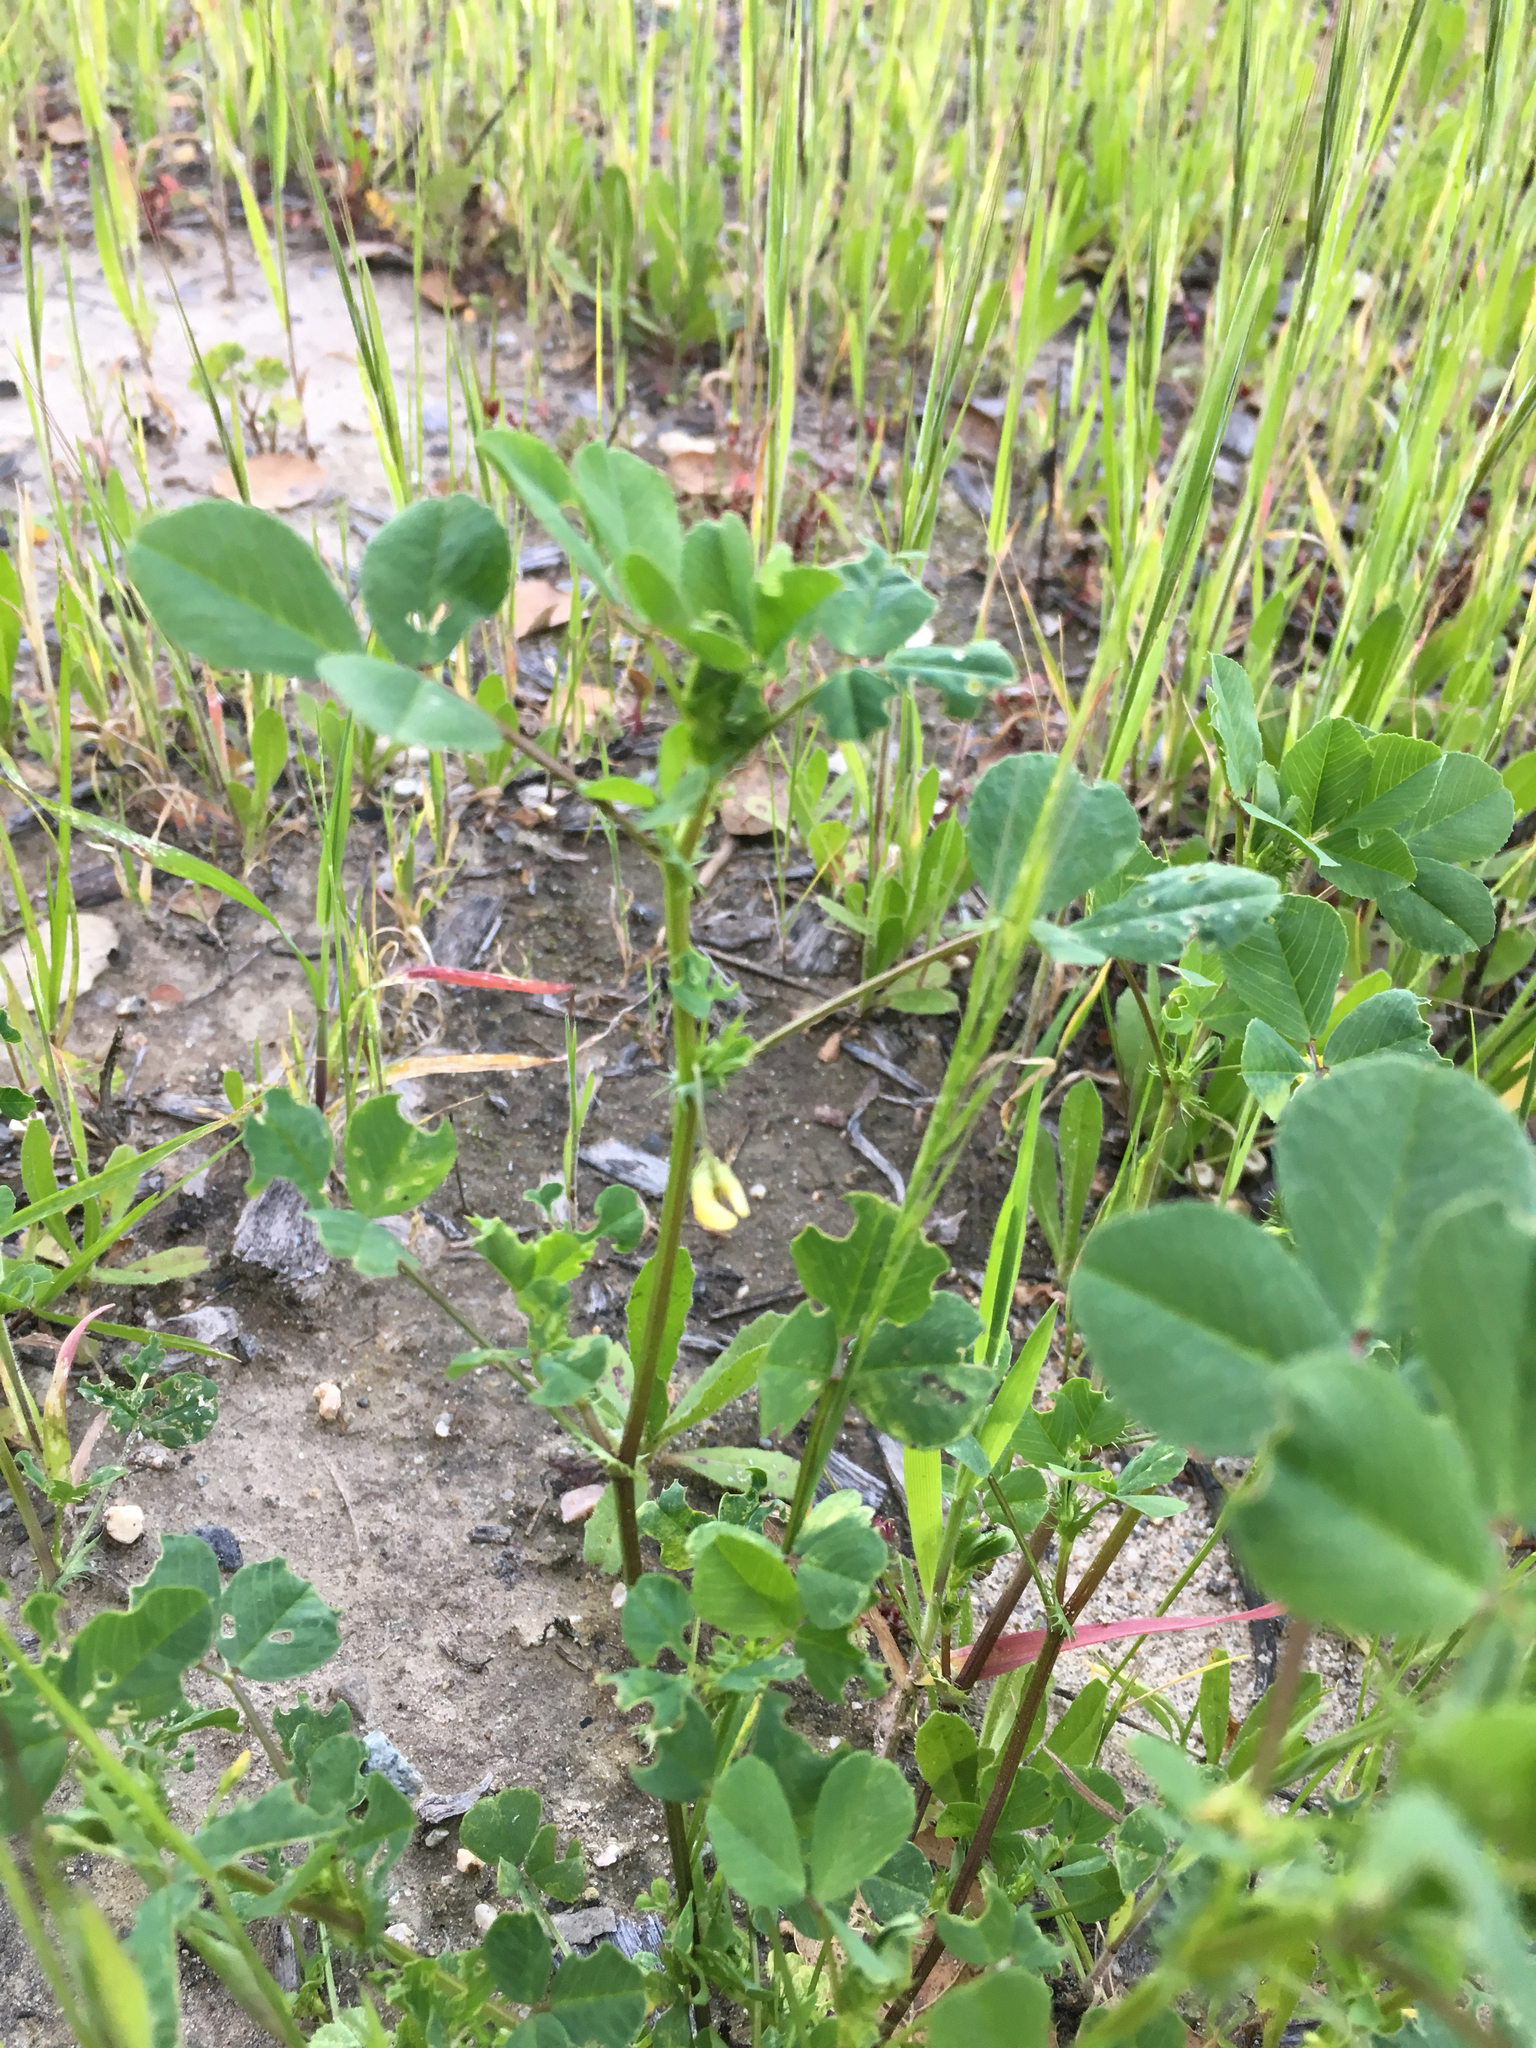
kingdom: Plantae
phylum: Tracheophyta
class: Magnoliopsida
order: Fabales
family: Fabaceae
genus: Medicago
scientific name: Medicago polymorpha
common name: Burclover
